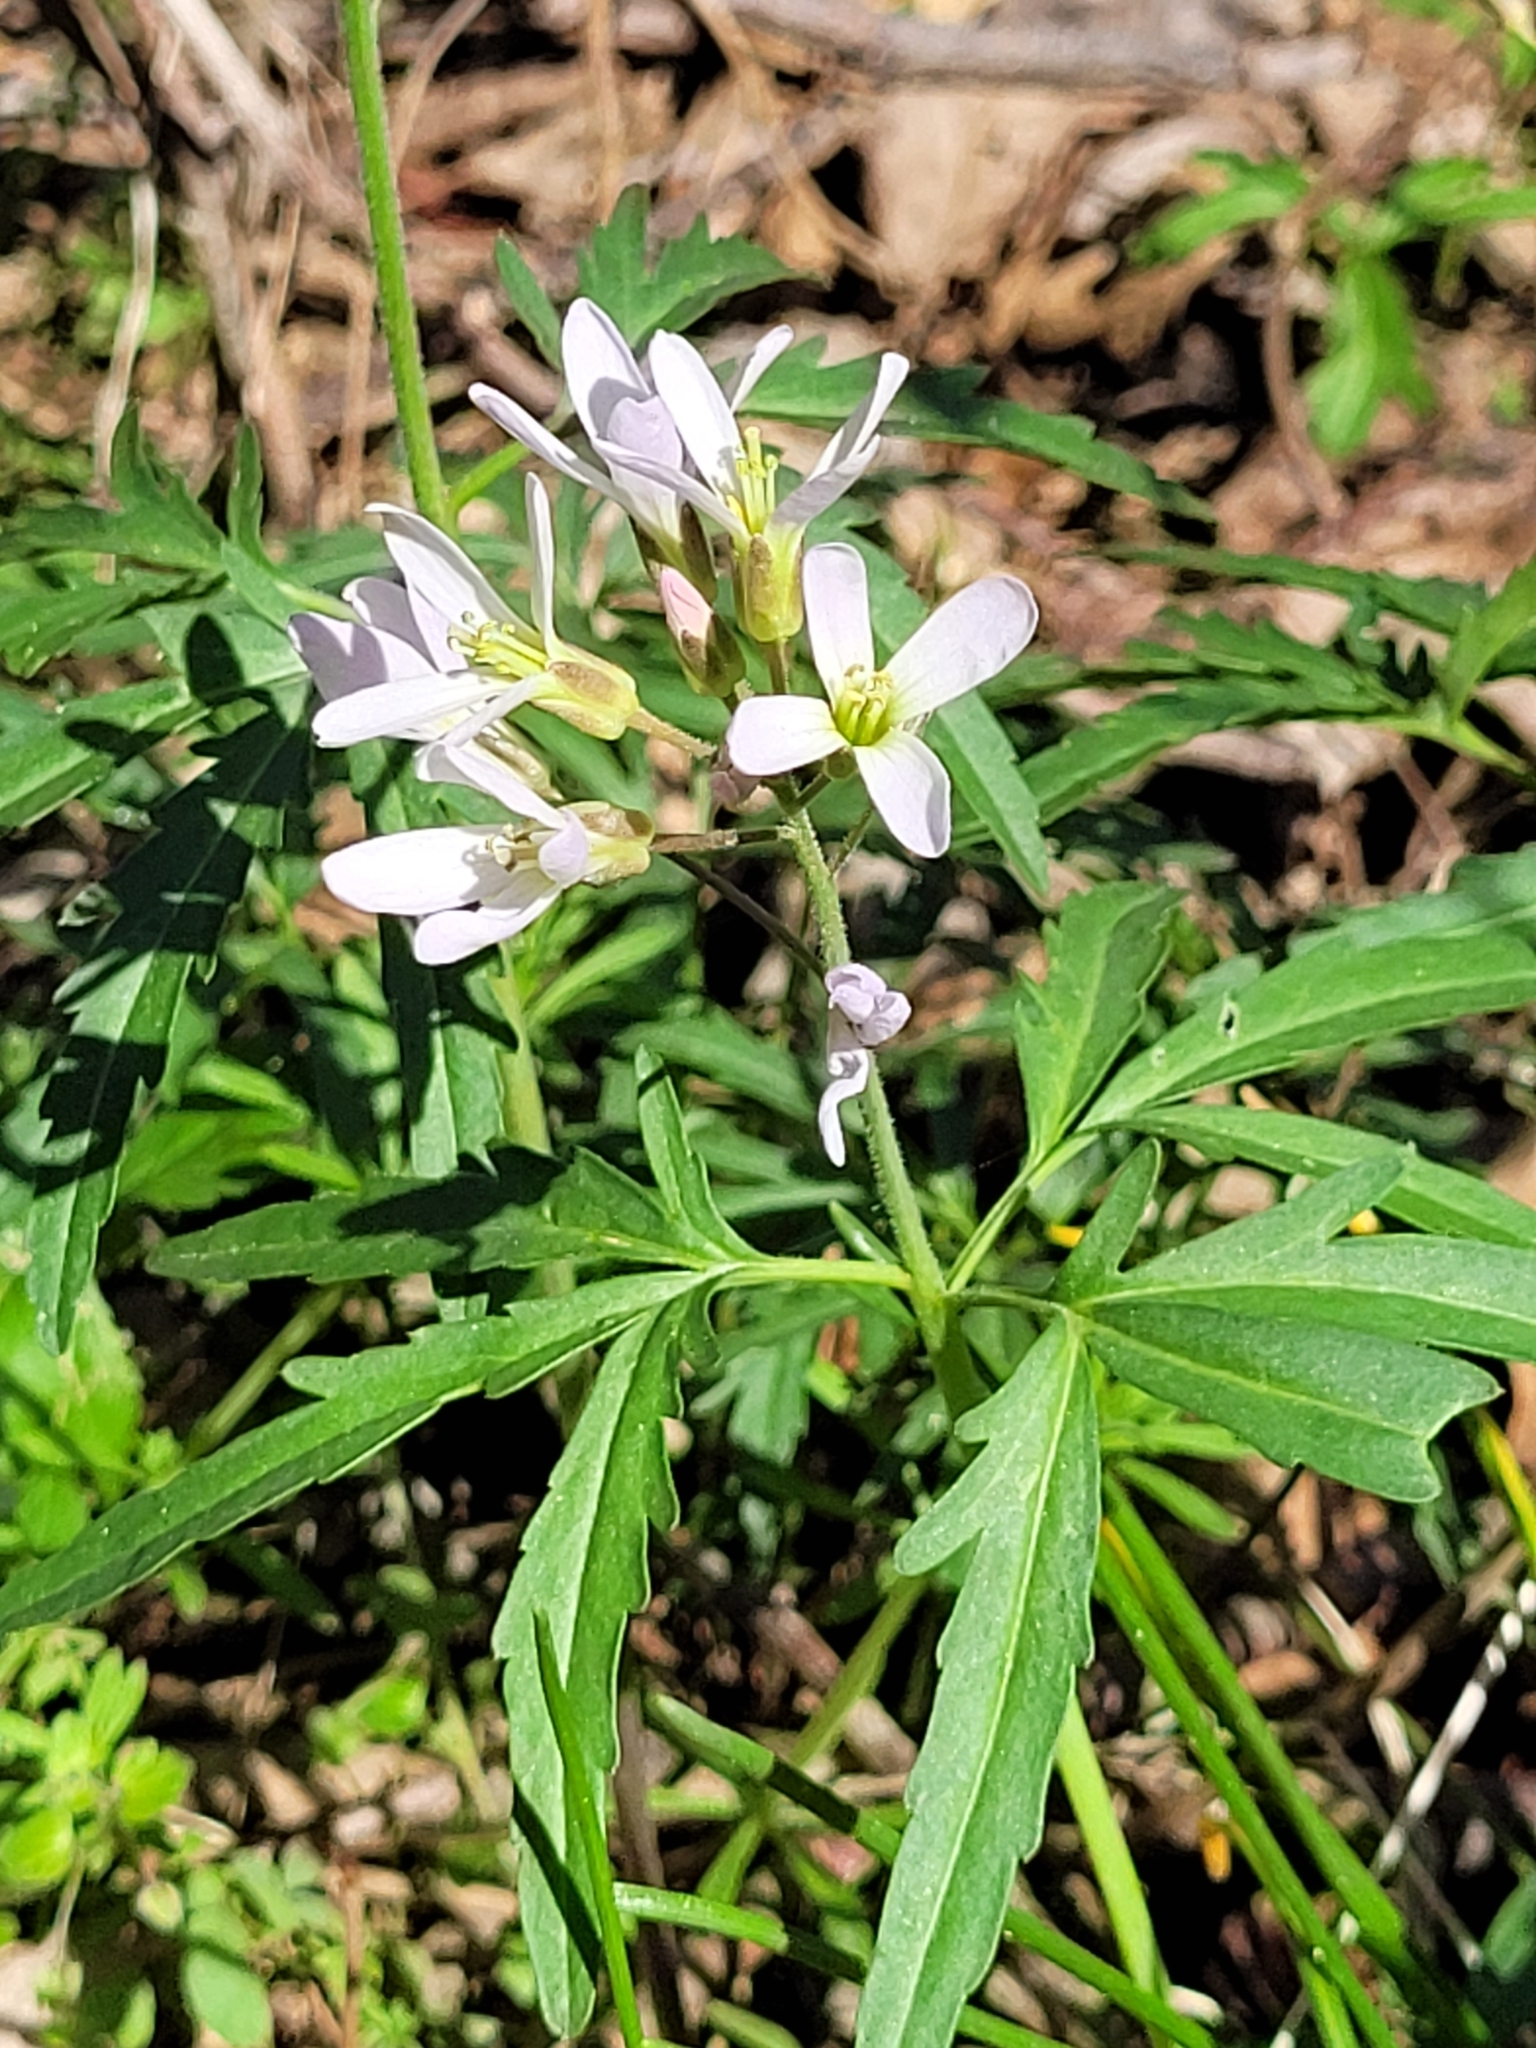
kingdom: Plantae
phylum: Tracheophyta
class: Magnoliopsida
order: Brassicales
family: Brassicaceae
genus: Cardamine
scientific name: Cardamine concatenata
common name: Cut-leaf toothcup
